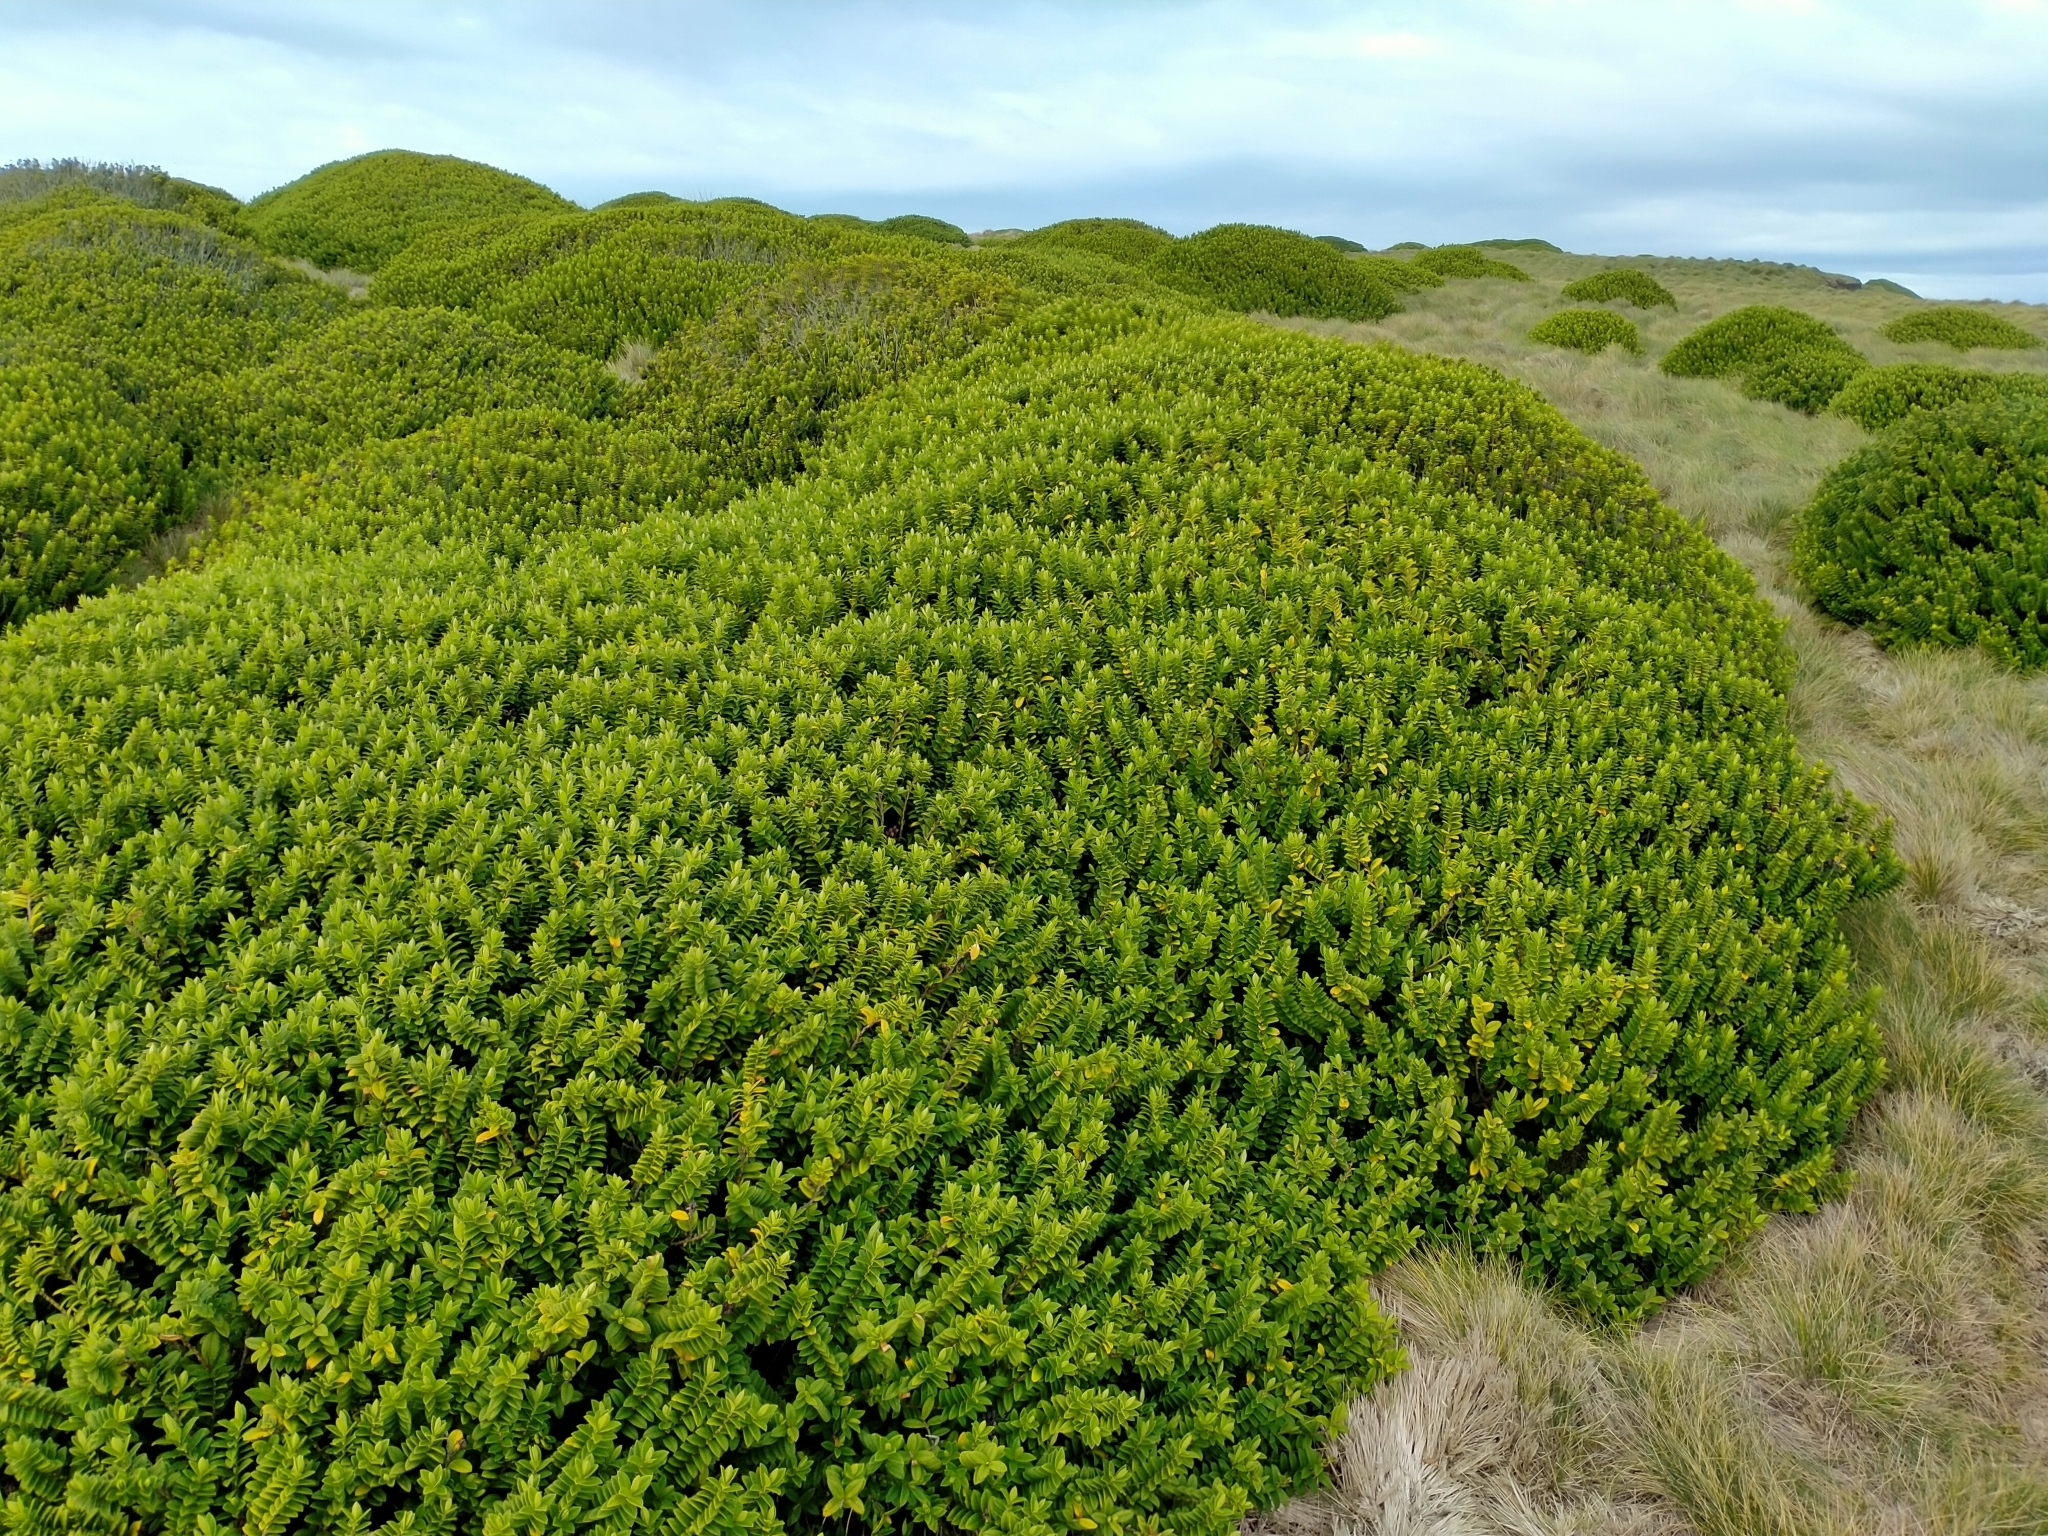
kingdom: Plantae
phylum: Tracheophyta
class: Magnoliopsida
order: Lamiales
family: Plantaginaceae
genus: Veronica
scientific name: Veronica elliptica
